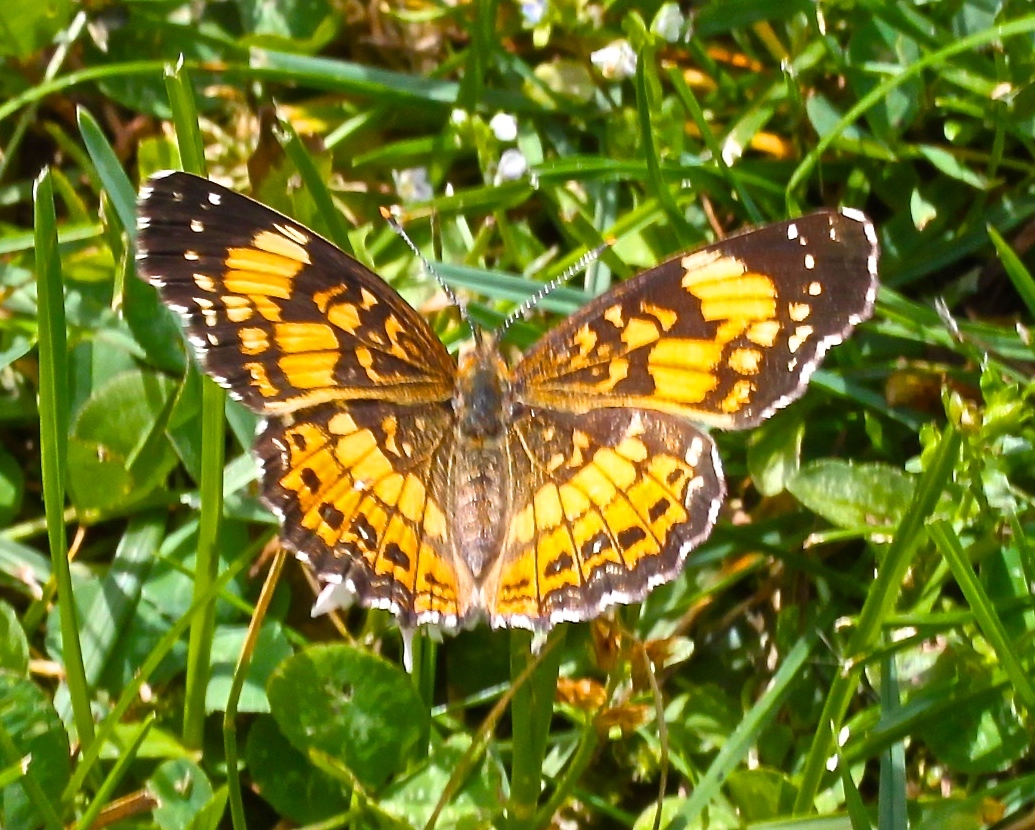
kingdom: Animalia
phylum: Arthropoda
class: Insecta
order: Lepidoptera
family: Nymphalidae
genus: Chlosyne
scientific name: Chlosyne nycteis
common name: Silvery checkerspot
